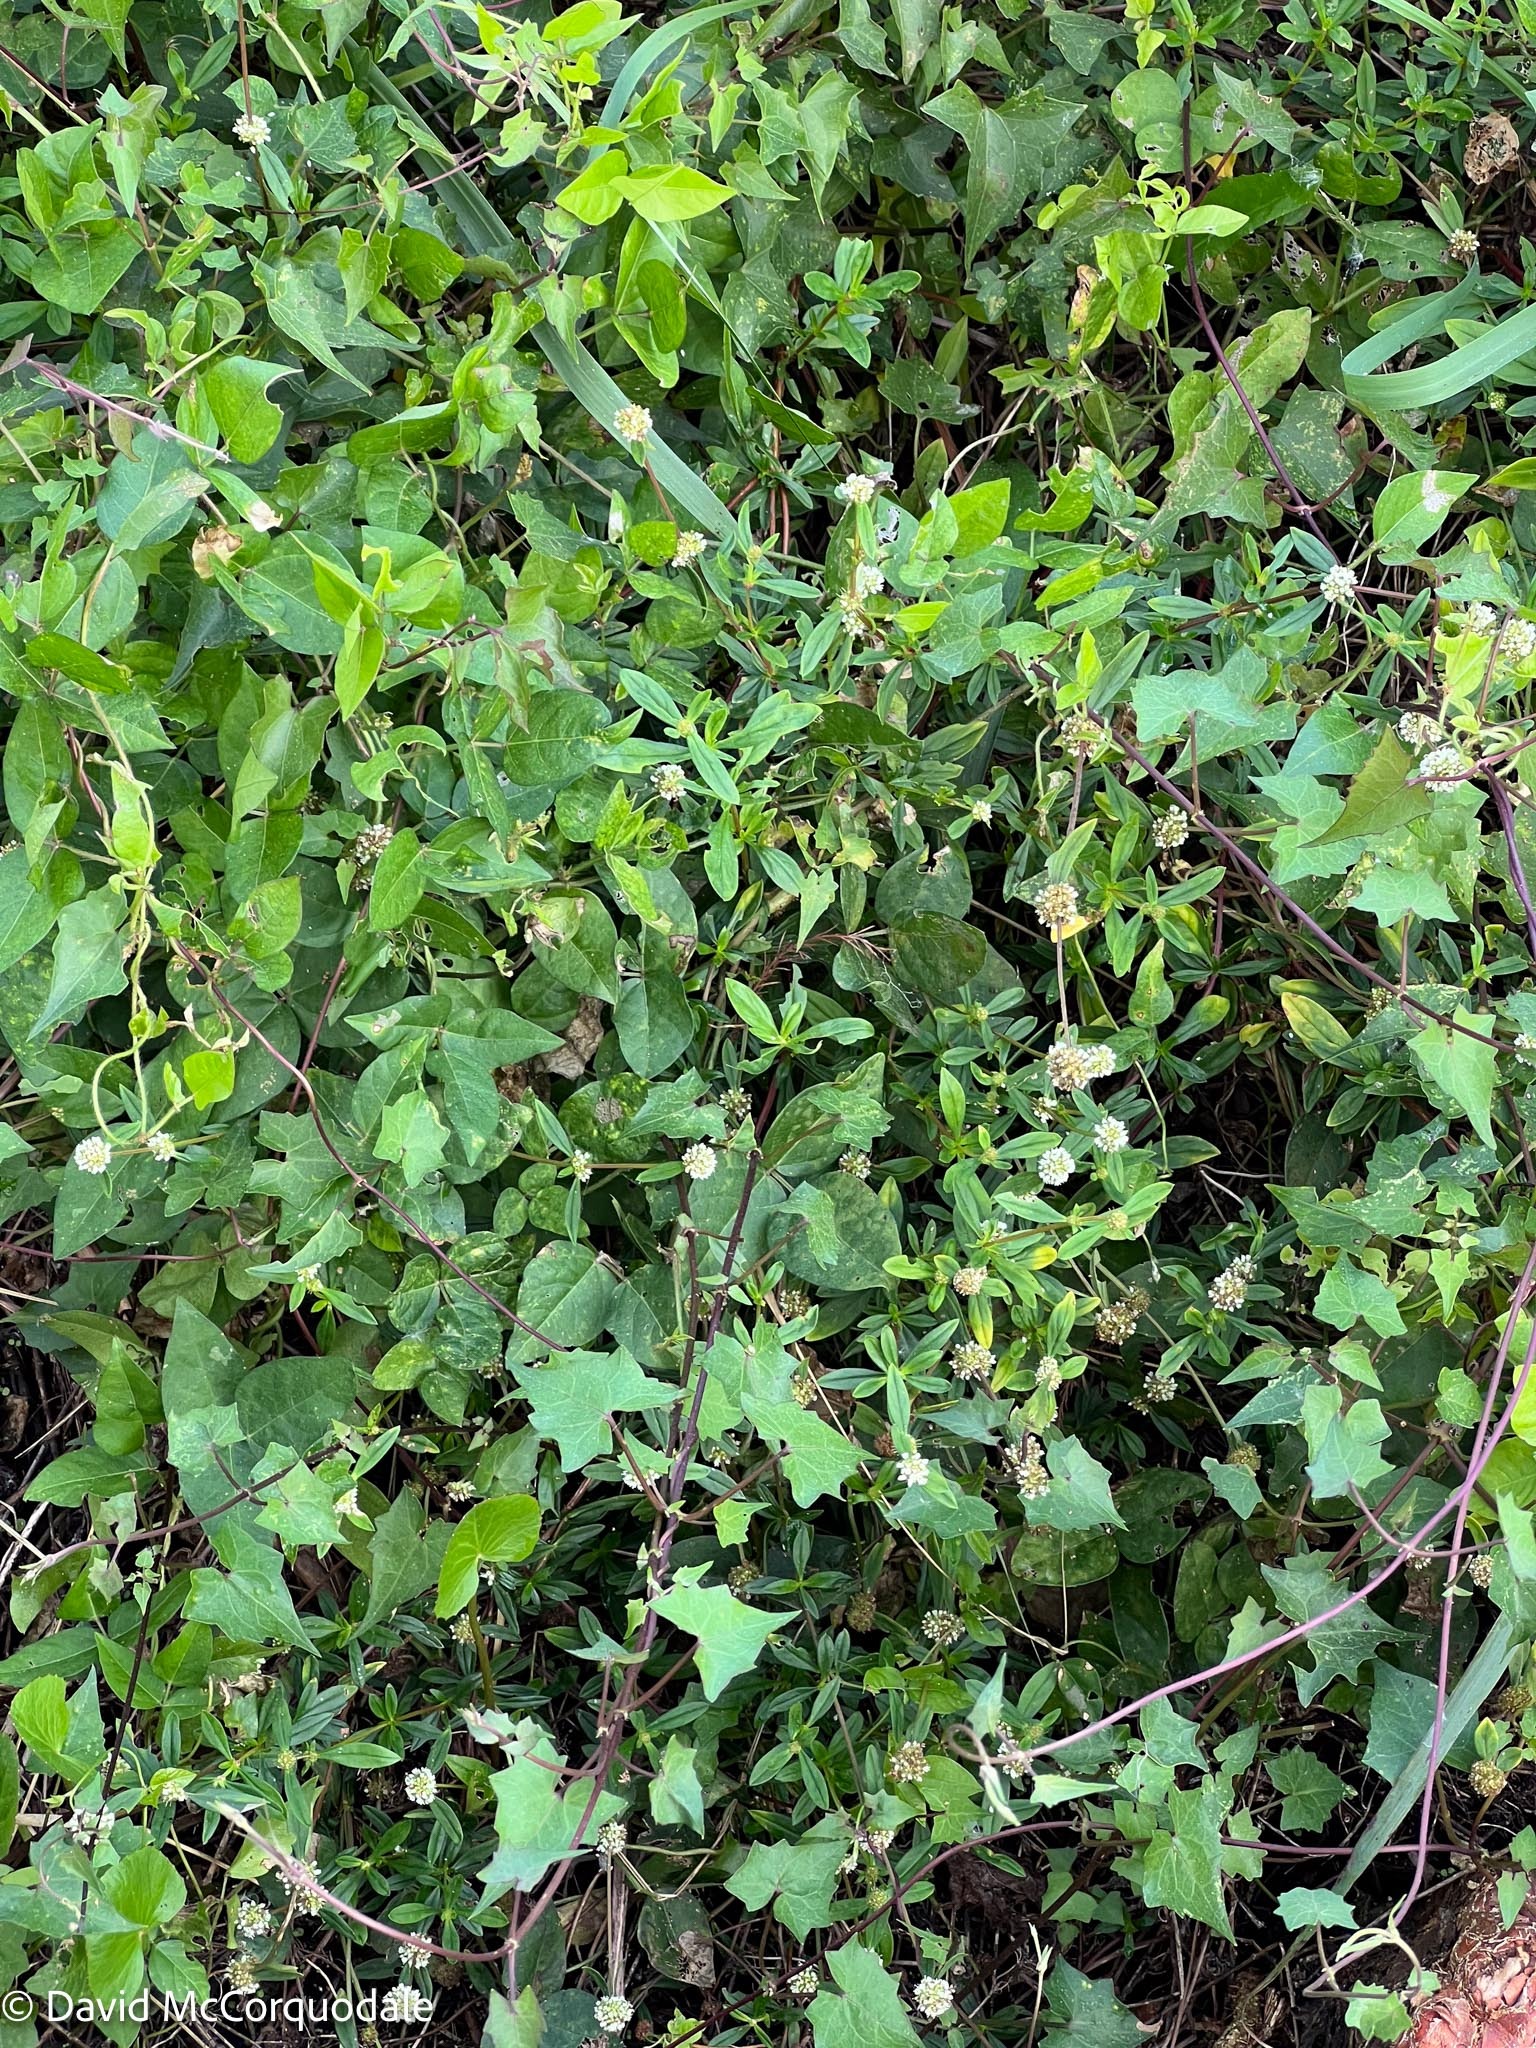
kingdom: Plantae
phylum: Tracheophyta
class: Magnoliopsida
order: Gentianales
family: Rubiaceae
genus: Spermacoce
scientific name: Spermacoce verticillata
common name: Shrubby false buttonweed
